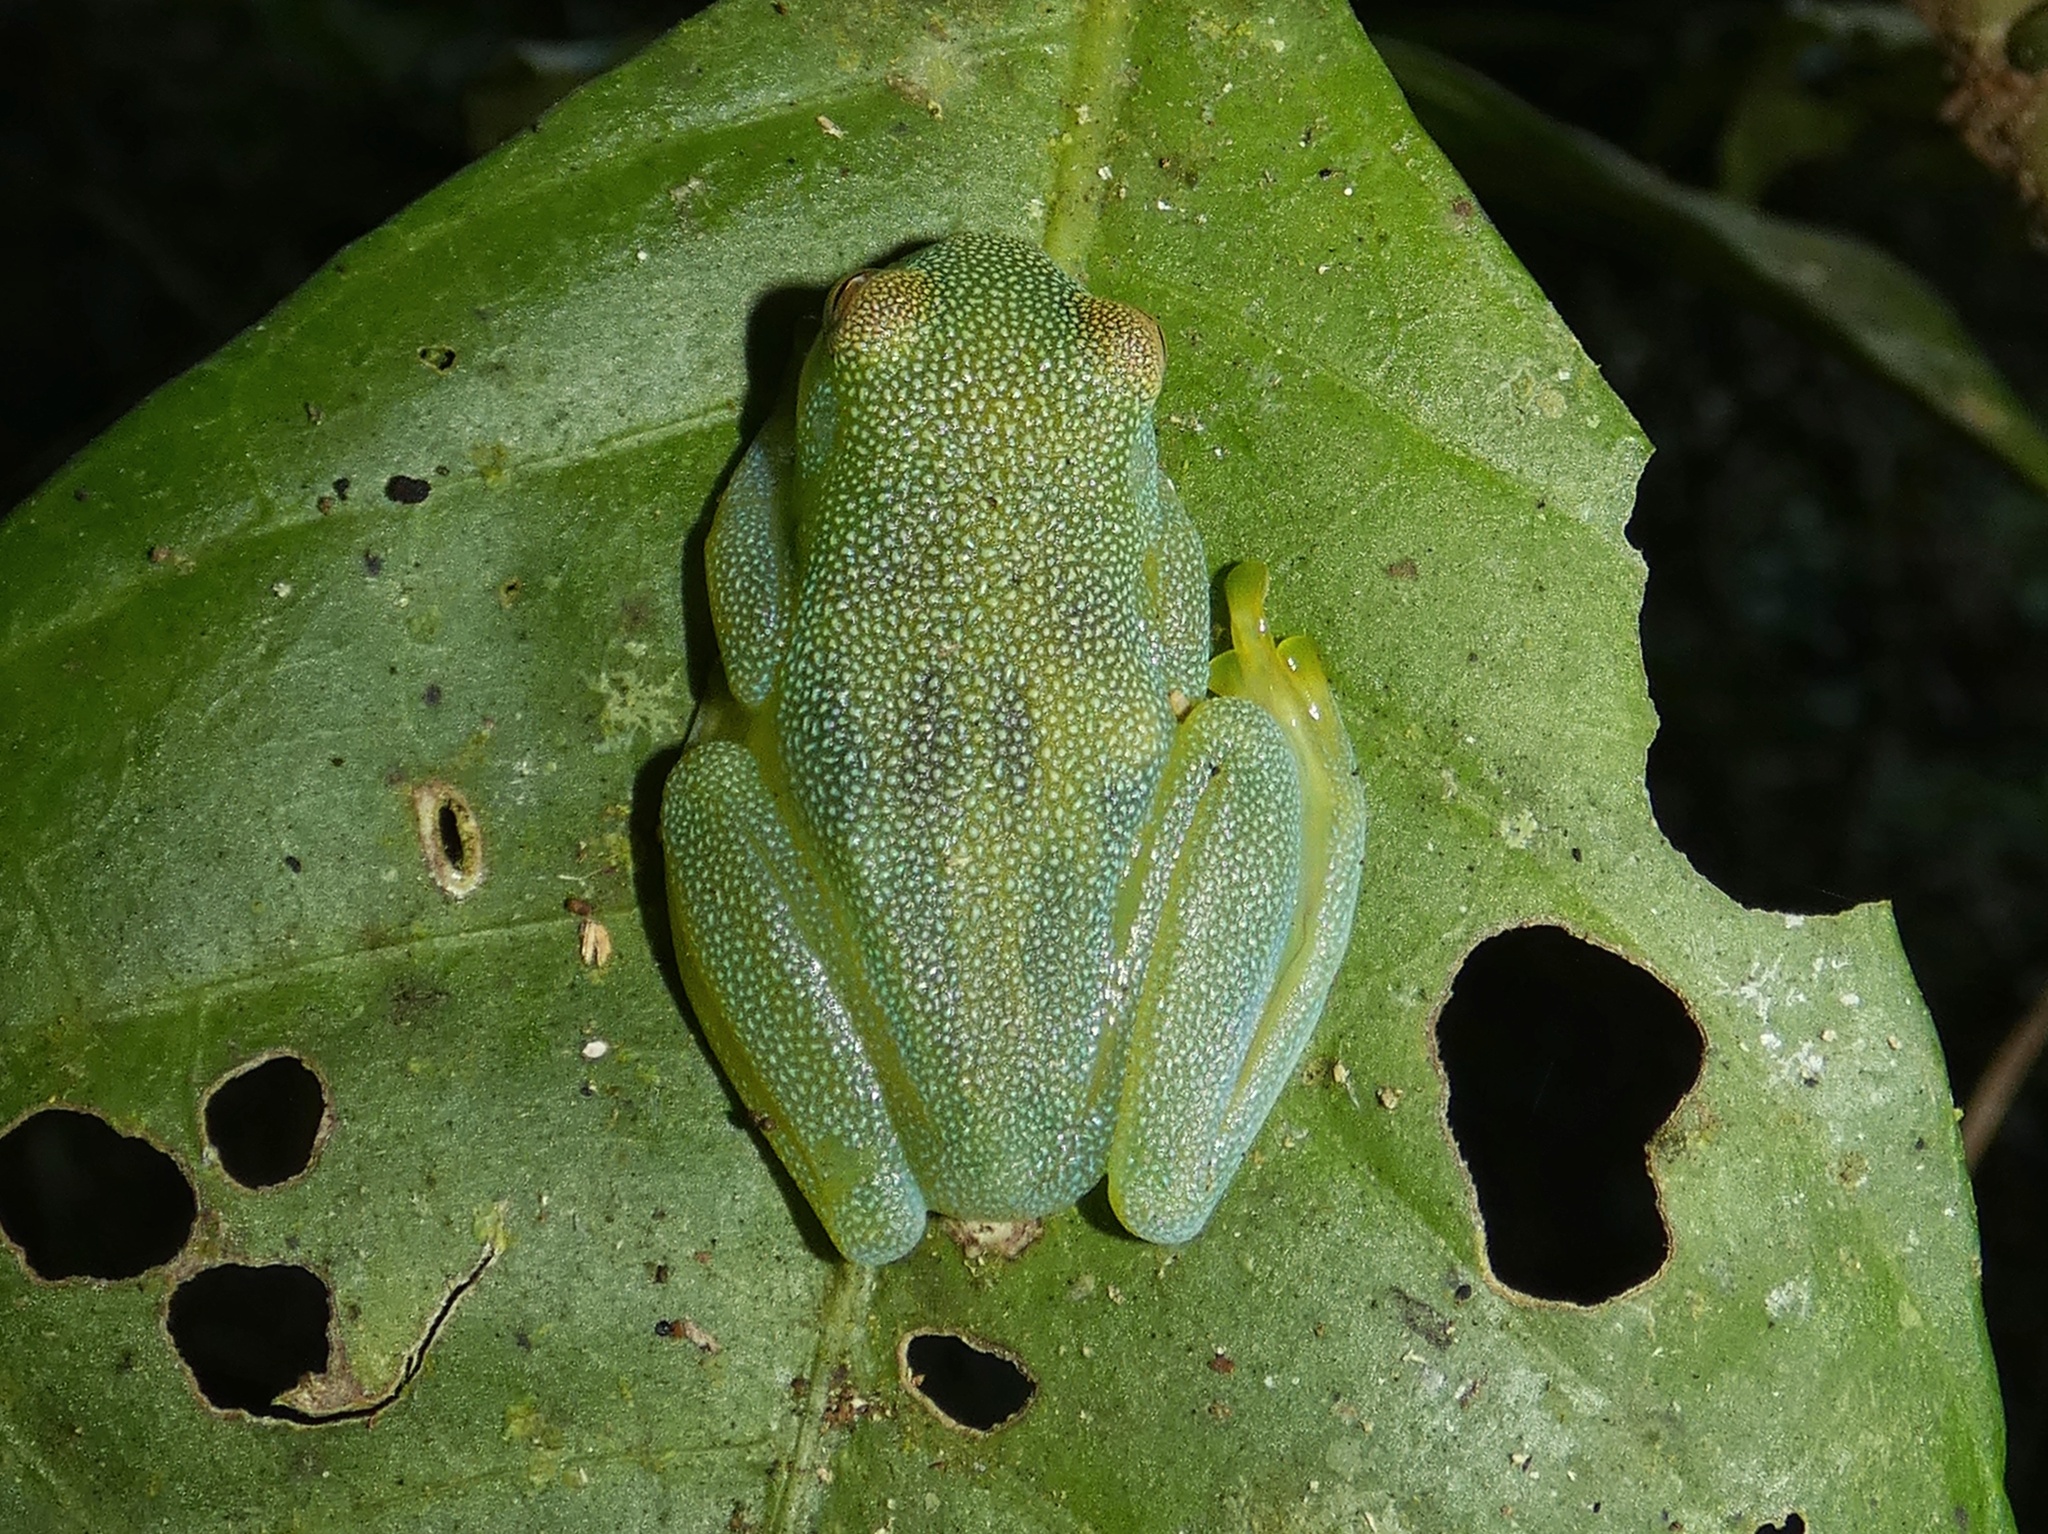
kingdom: Animalia
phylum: Chordata
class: Amphibia
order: Anura
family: Centrolenidae
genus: Cochranella
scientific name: Cochranella granulosa
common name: Grainy cochran frog
